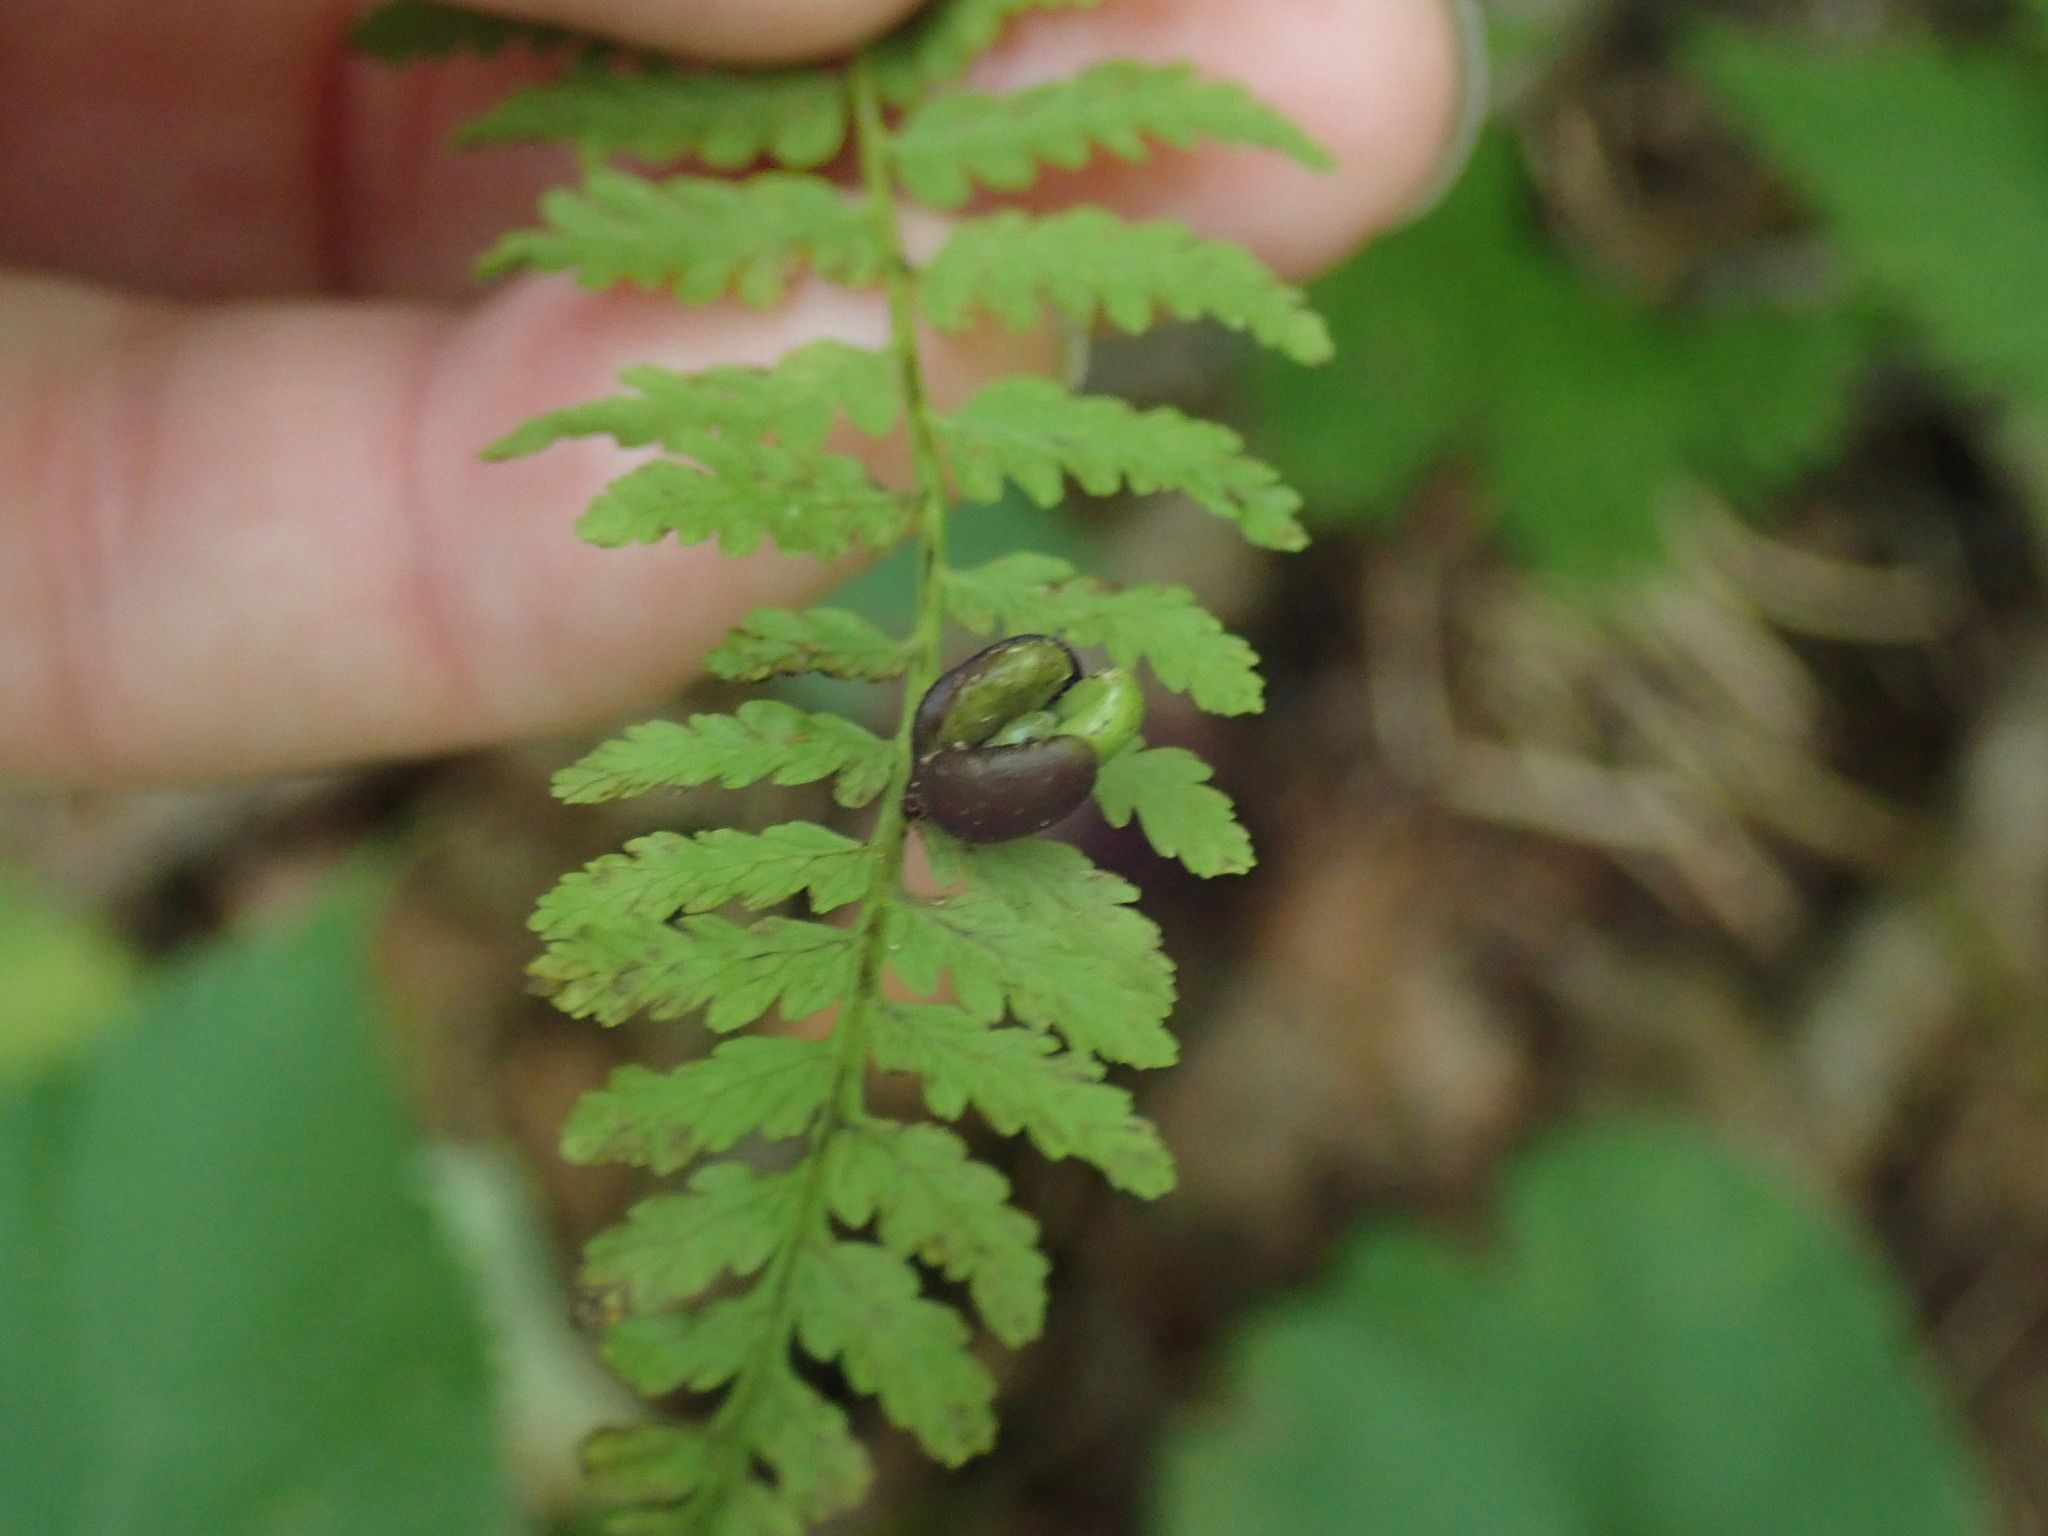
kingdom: Plantae
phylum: Tracheophyta
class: Polypodiopsida
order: Polypodiales
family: Cystopteridaceae
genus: Cystopteris
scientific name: Cystopteris bulbifera
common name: Bulblet bladder fern
